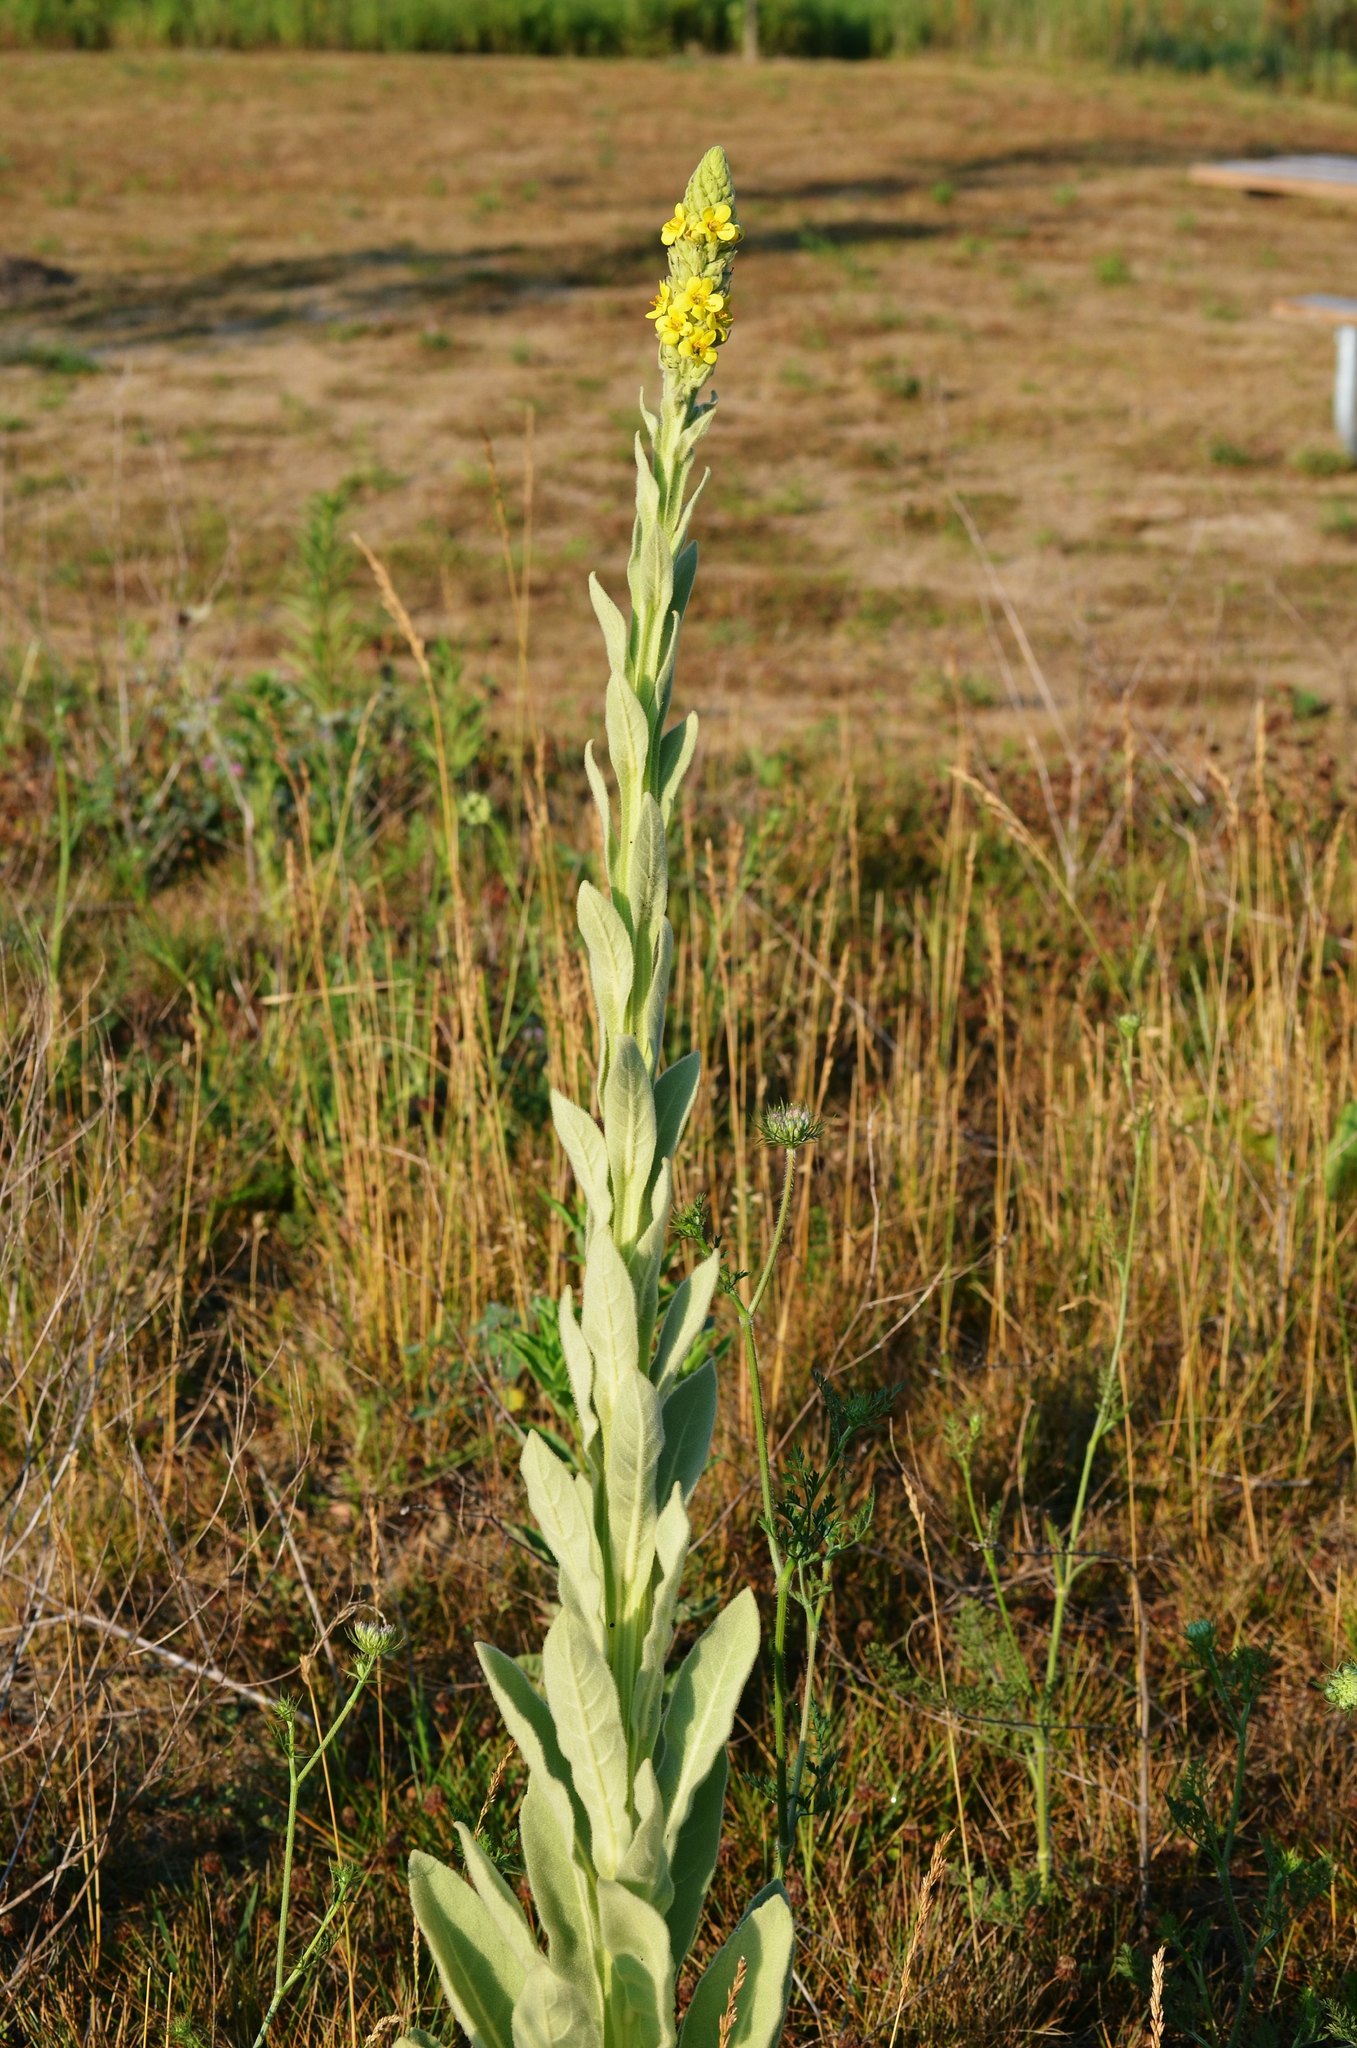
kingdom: Plantae
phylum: Tracheophyta
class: Magnoliopsida
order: Lamiales
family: Scrophulariaceae
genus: Verbascum
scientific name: Verbascum thapsus
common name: Common mullein
